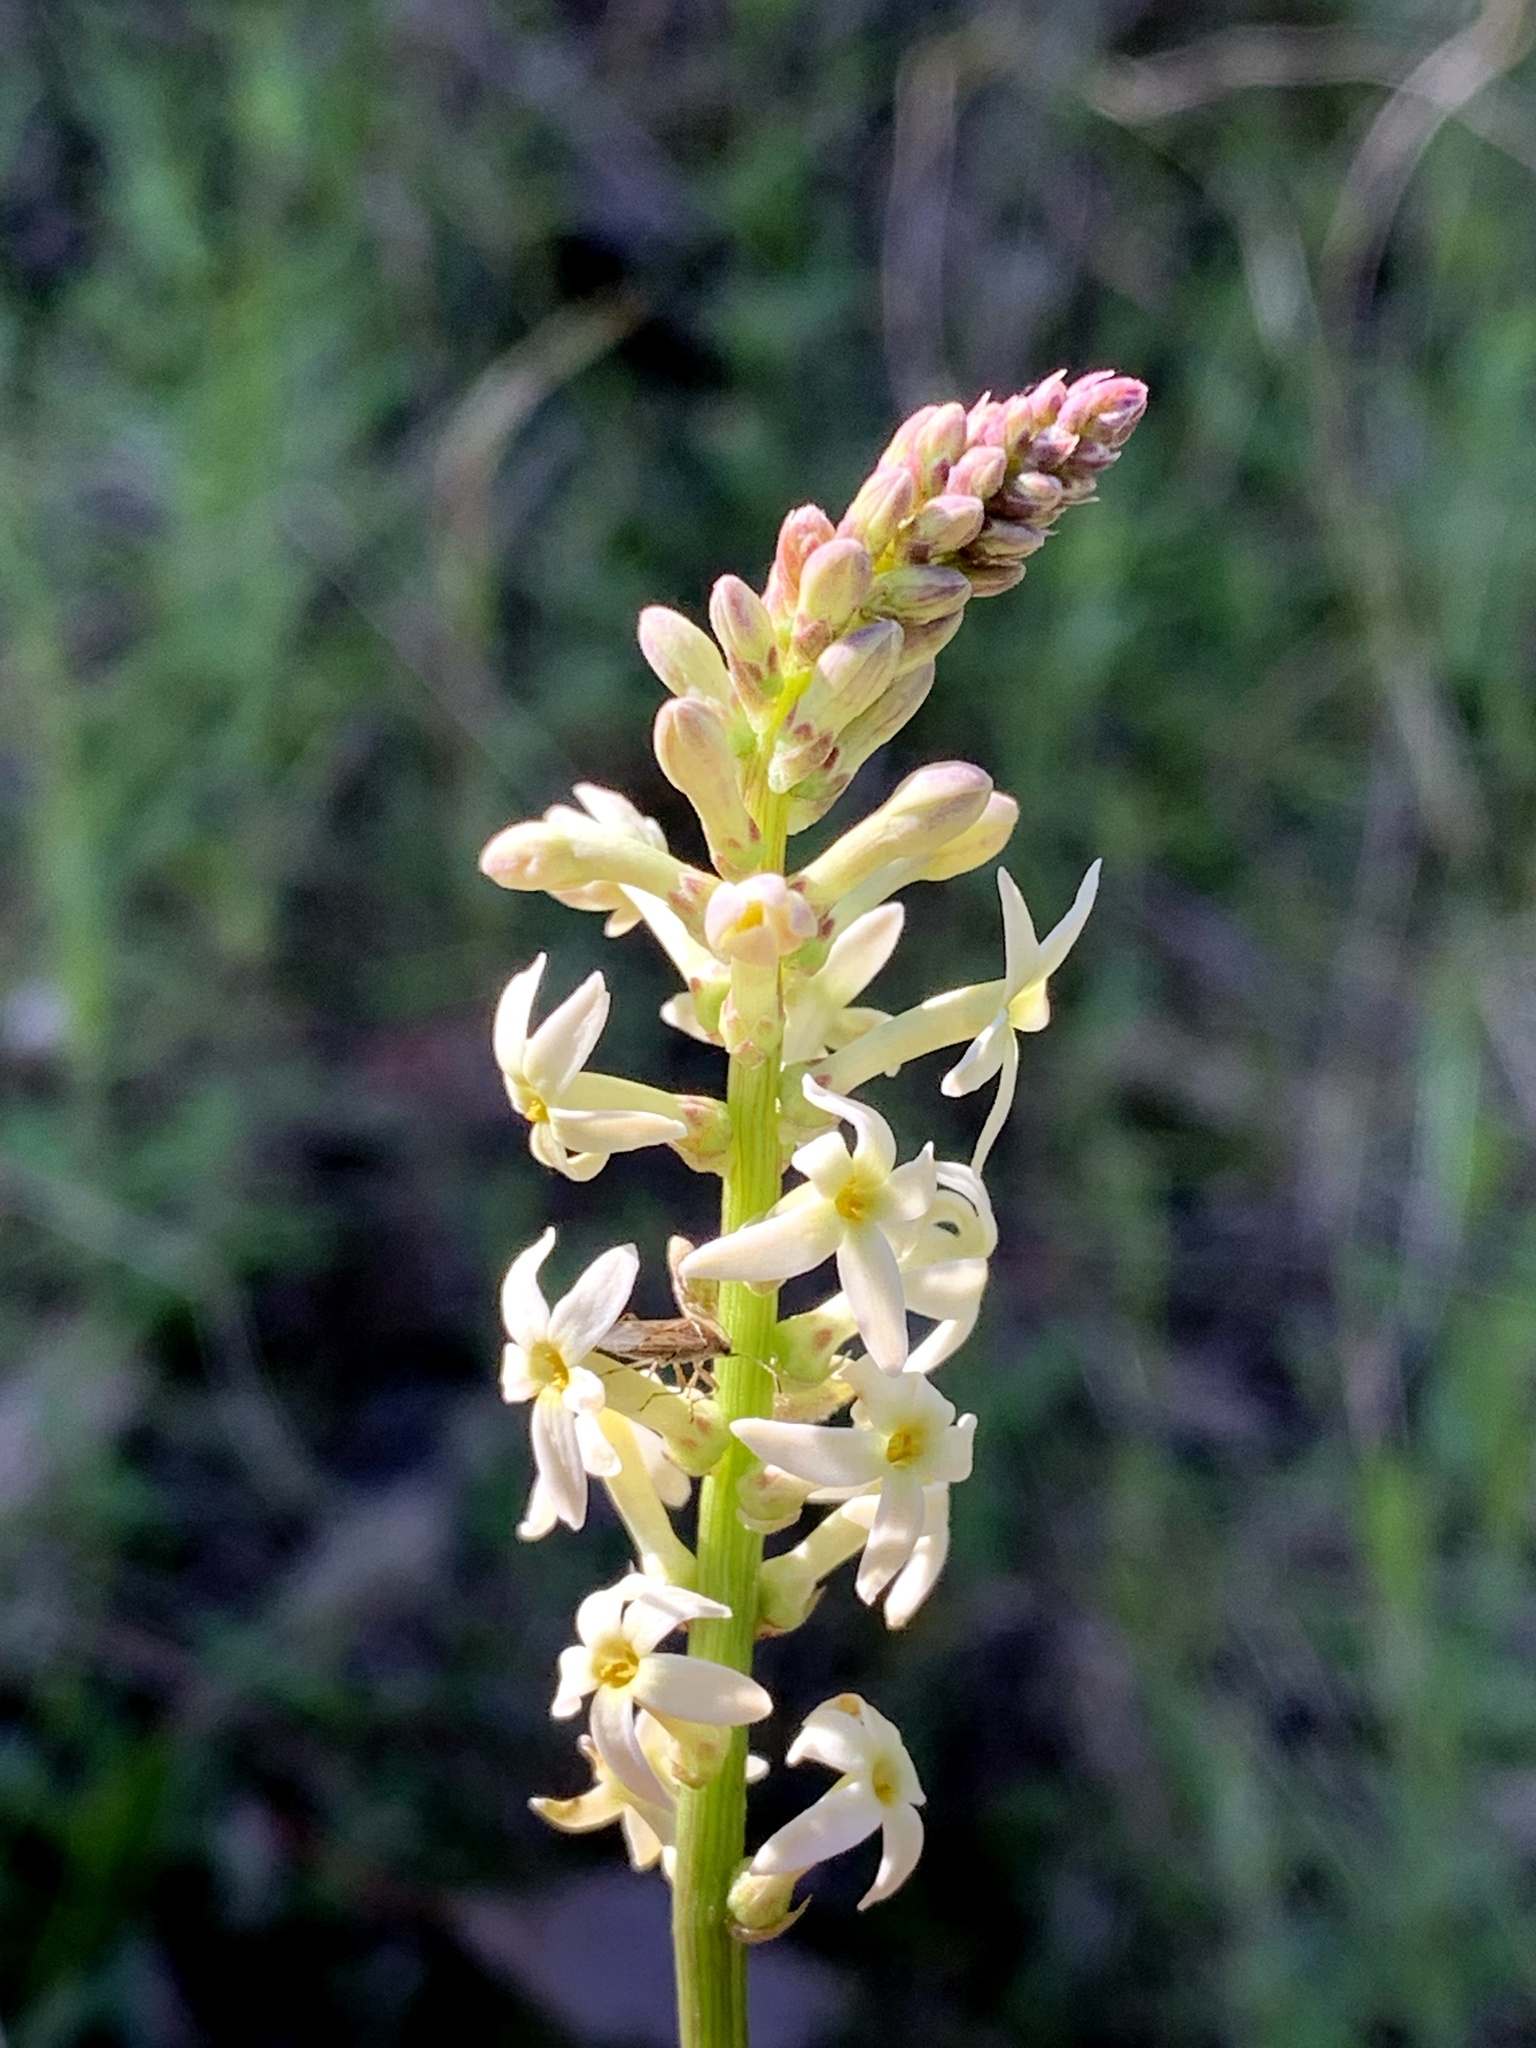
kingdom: Plantae
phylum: Tracheophyta
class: Magnoliopsida
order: Celastrales
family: Celastraceae
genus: Stackhousia
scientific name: Stackhousia monogyna
